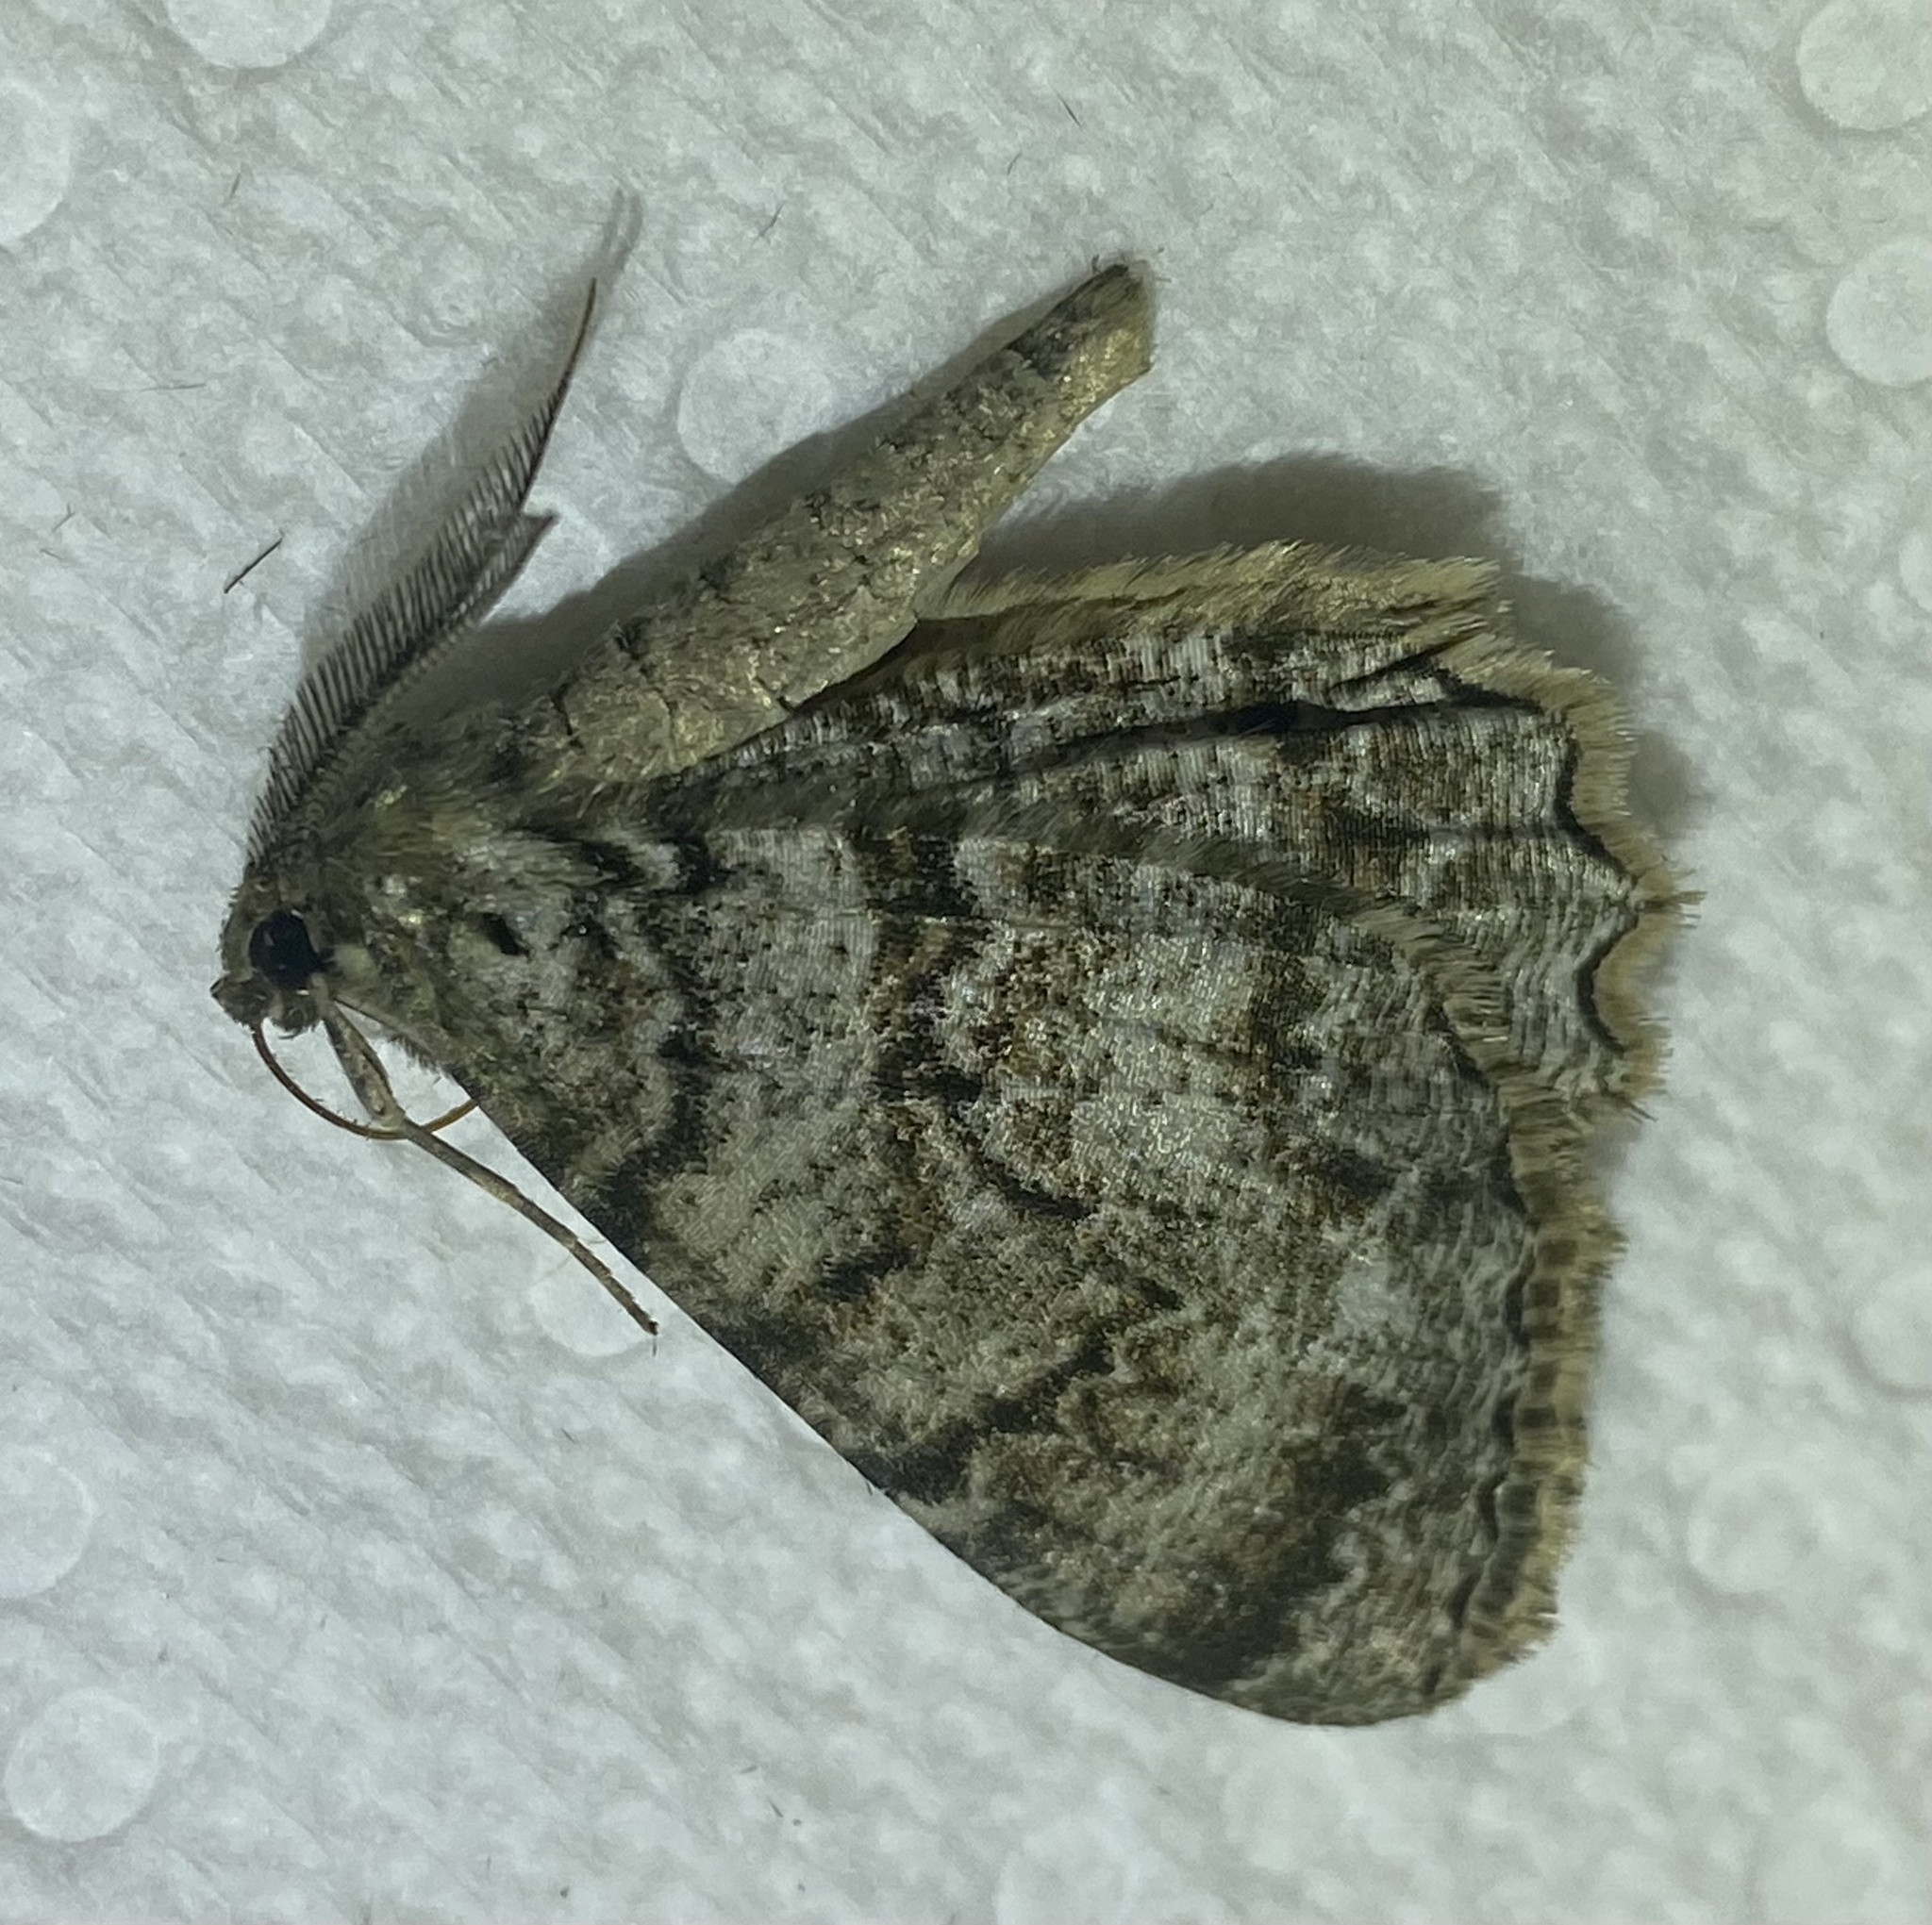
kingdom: Animalia
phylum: Arthropoda
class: Insecta
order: Lepidoptera
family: Geometridae
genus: Epimecis
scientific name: Epimecis hortaria
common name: Tulip-tree beauty
